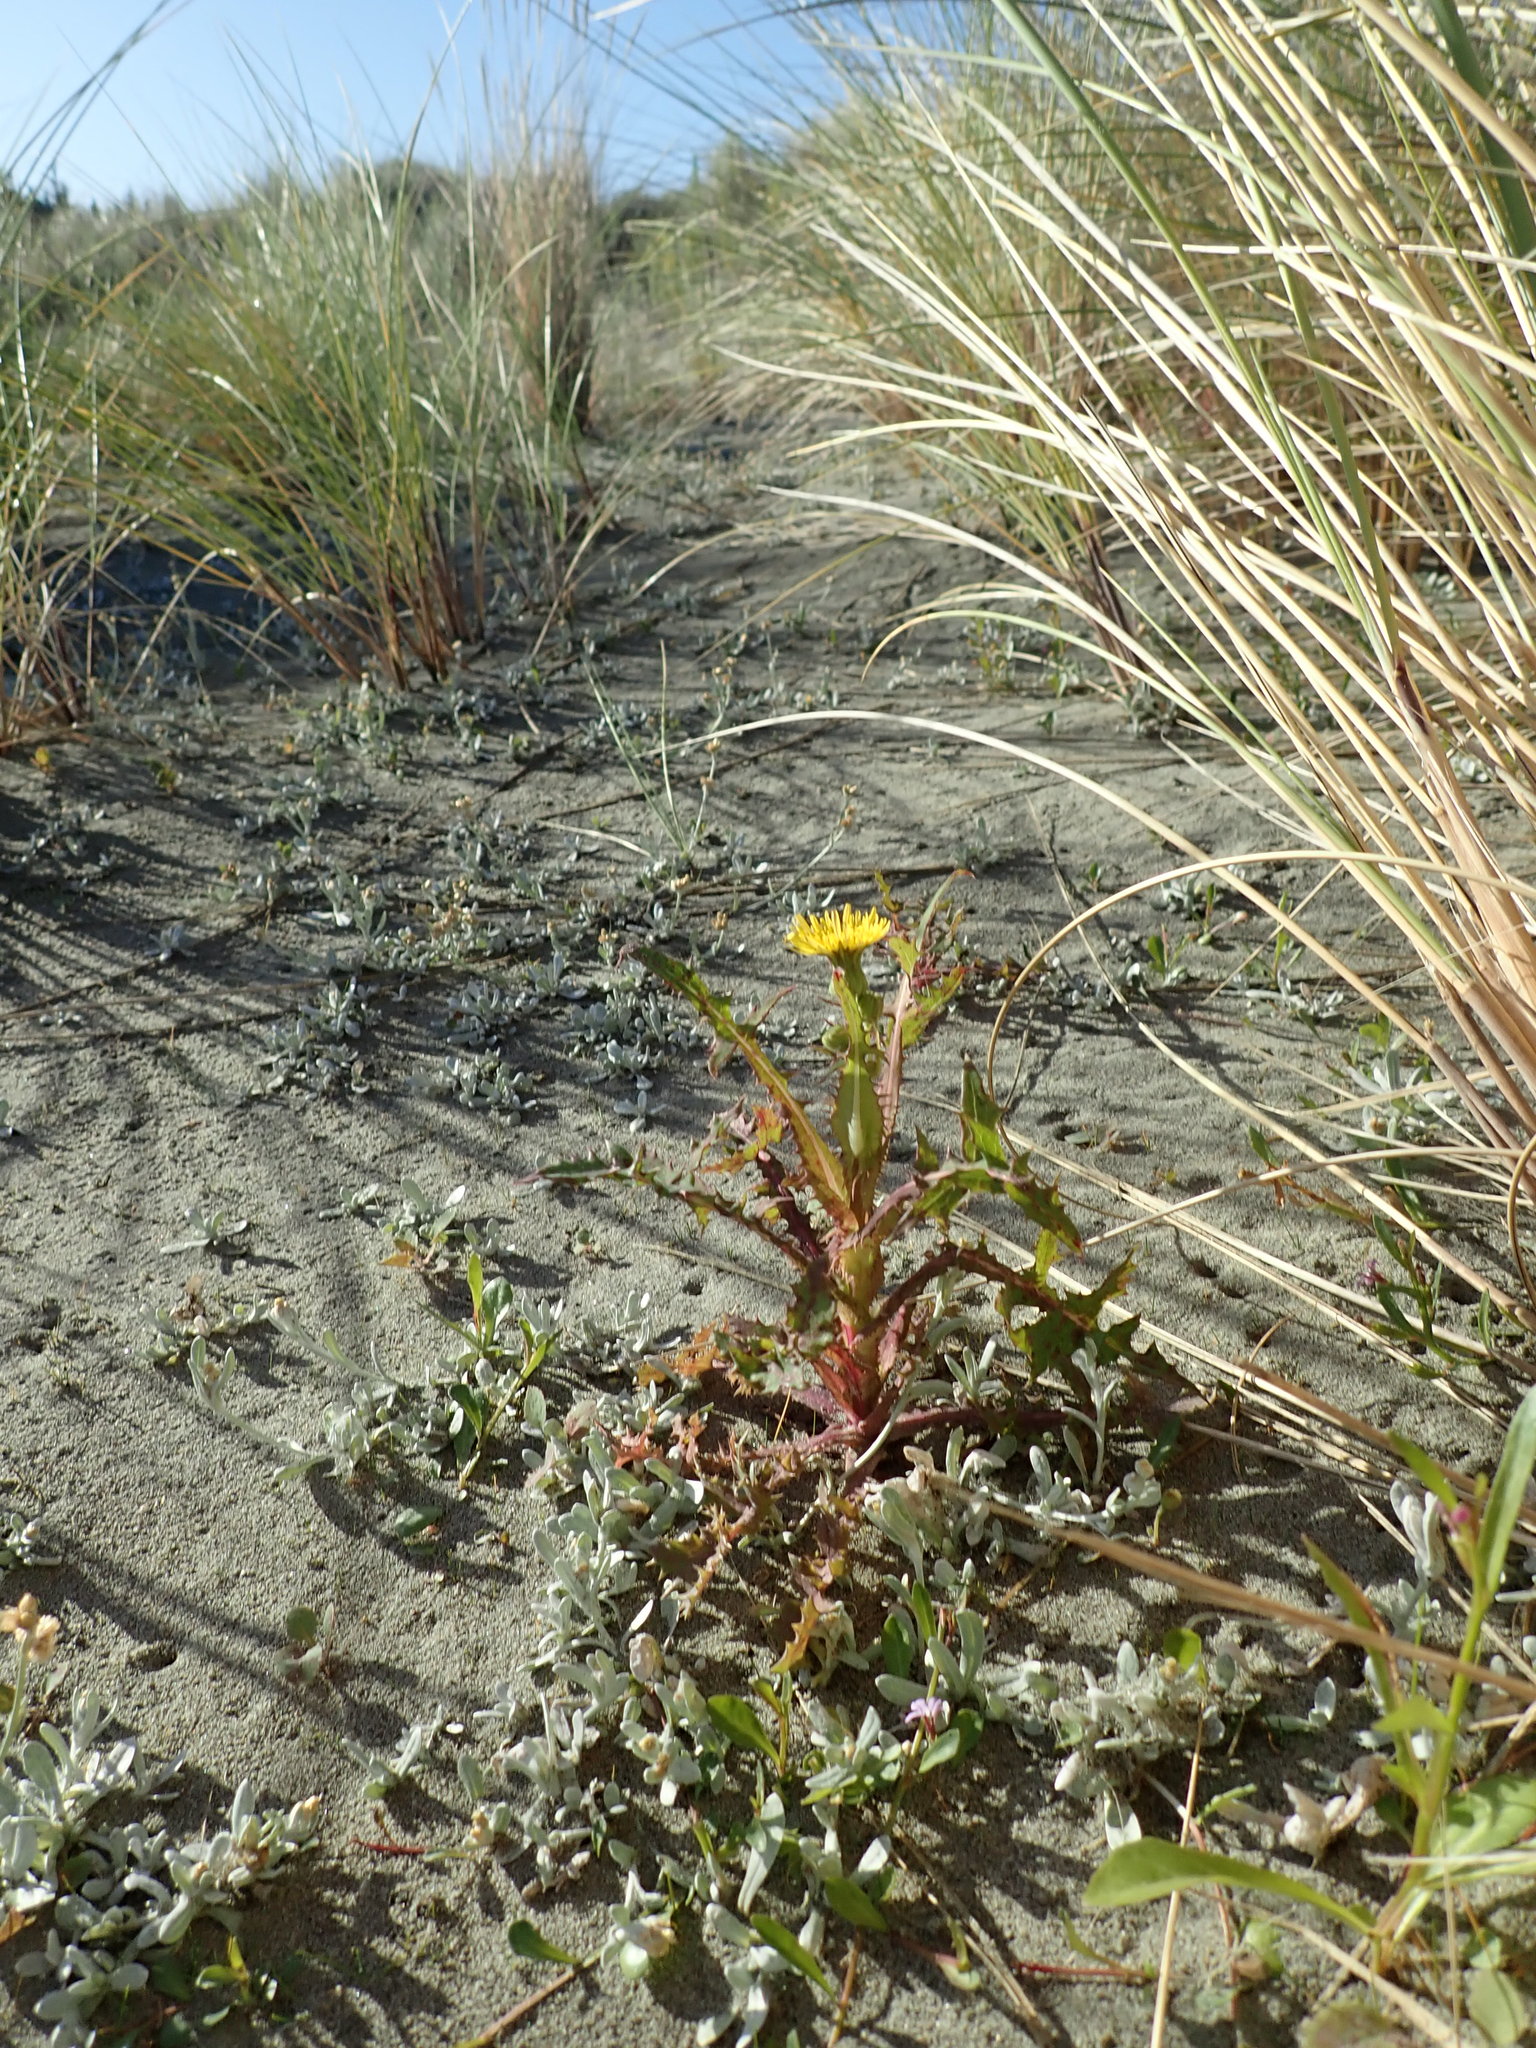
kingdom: Plantae
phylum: Tracheophyta
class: Magnoliopsida
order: Asterales
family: Asteraceae
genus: Sonchus
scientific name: Sonchus oleraceus
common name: Common sowthistle
